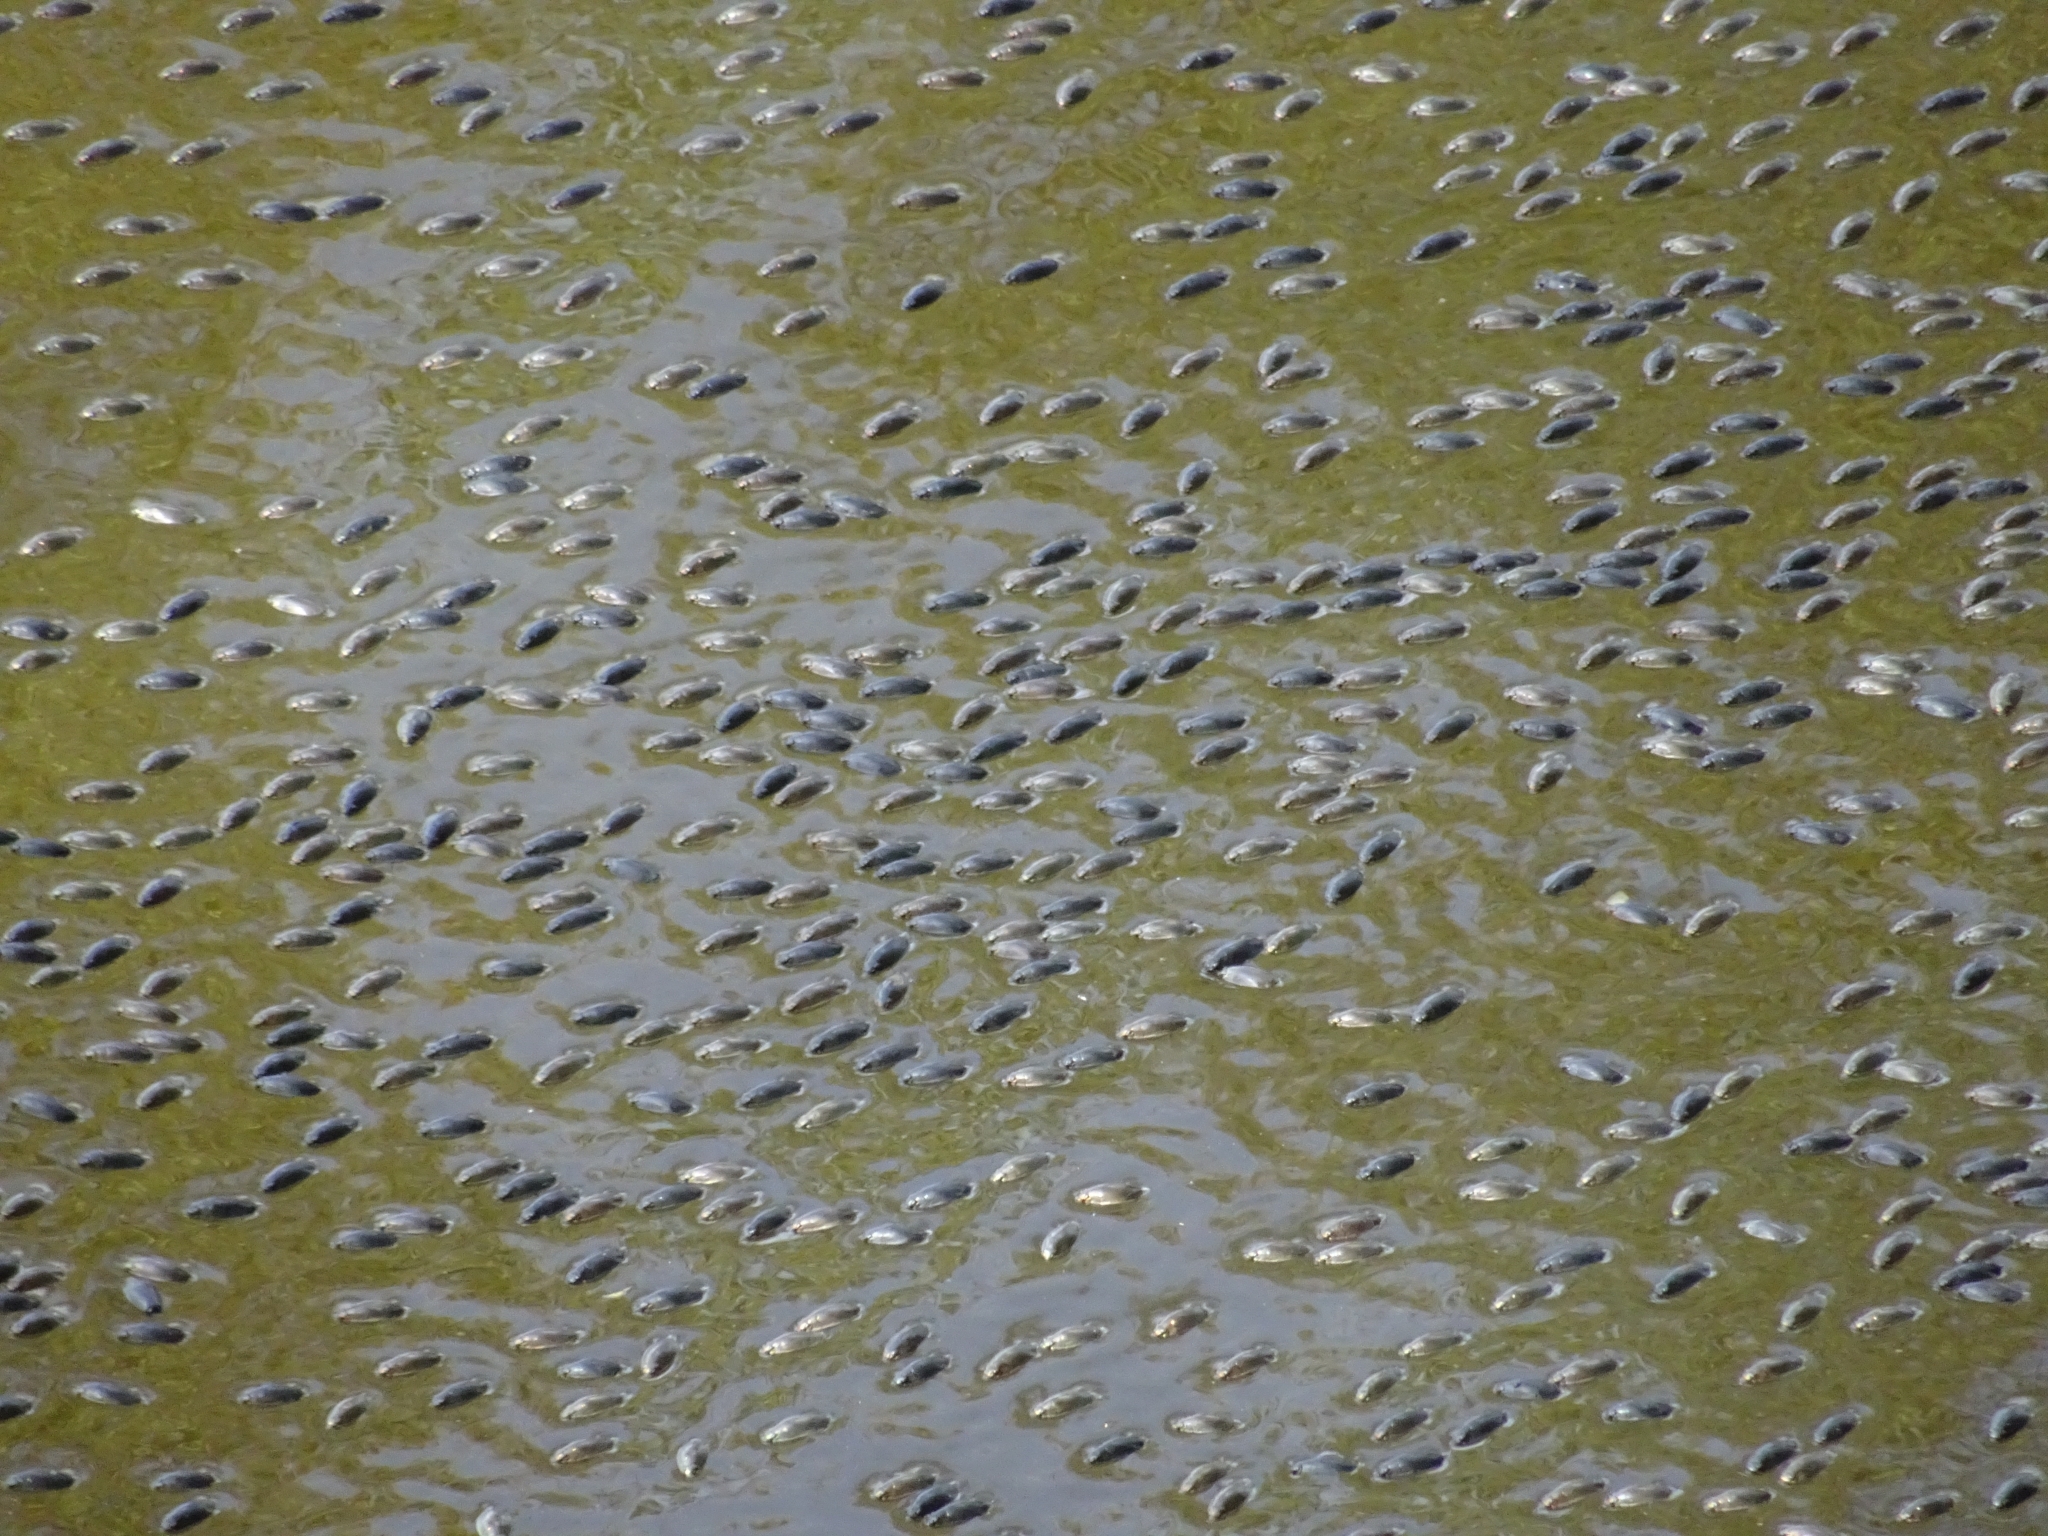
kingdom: Animalia
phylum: Arthropoda
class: Insecta
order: Coleoptera
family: Gyrinidae
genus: Dineutus
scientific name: Dineutus
